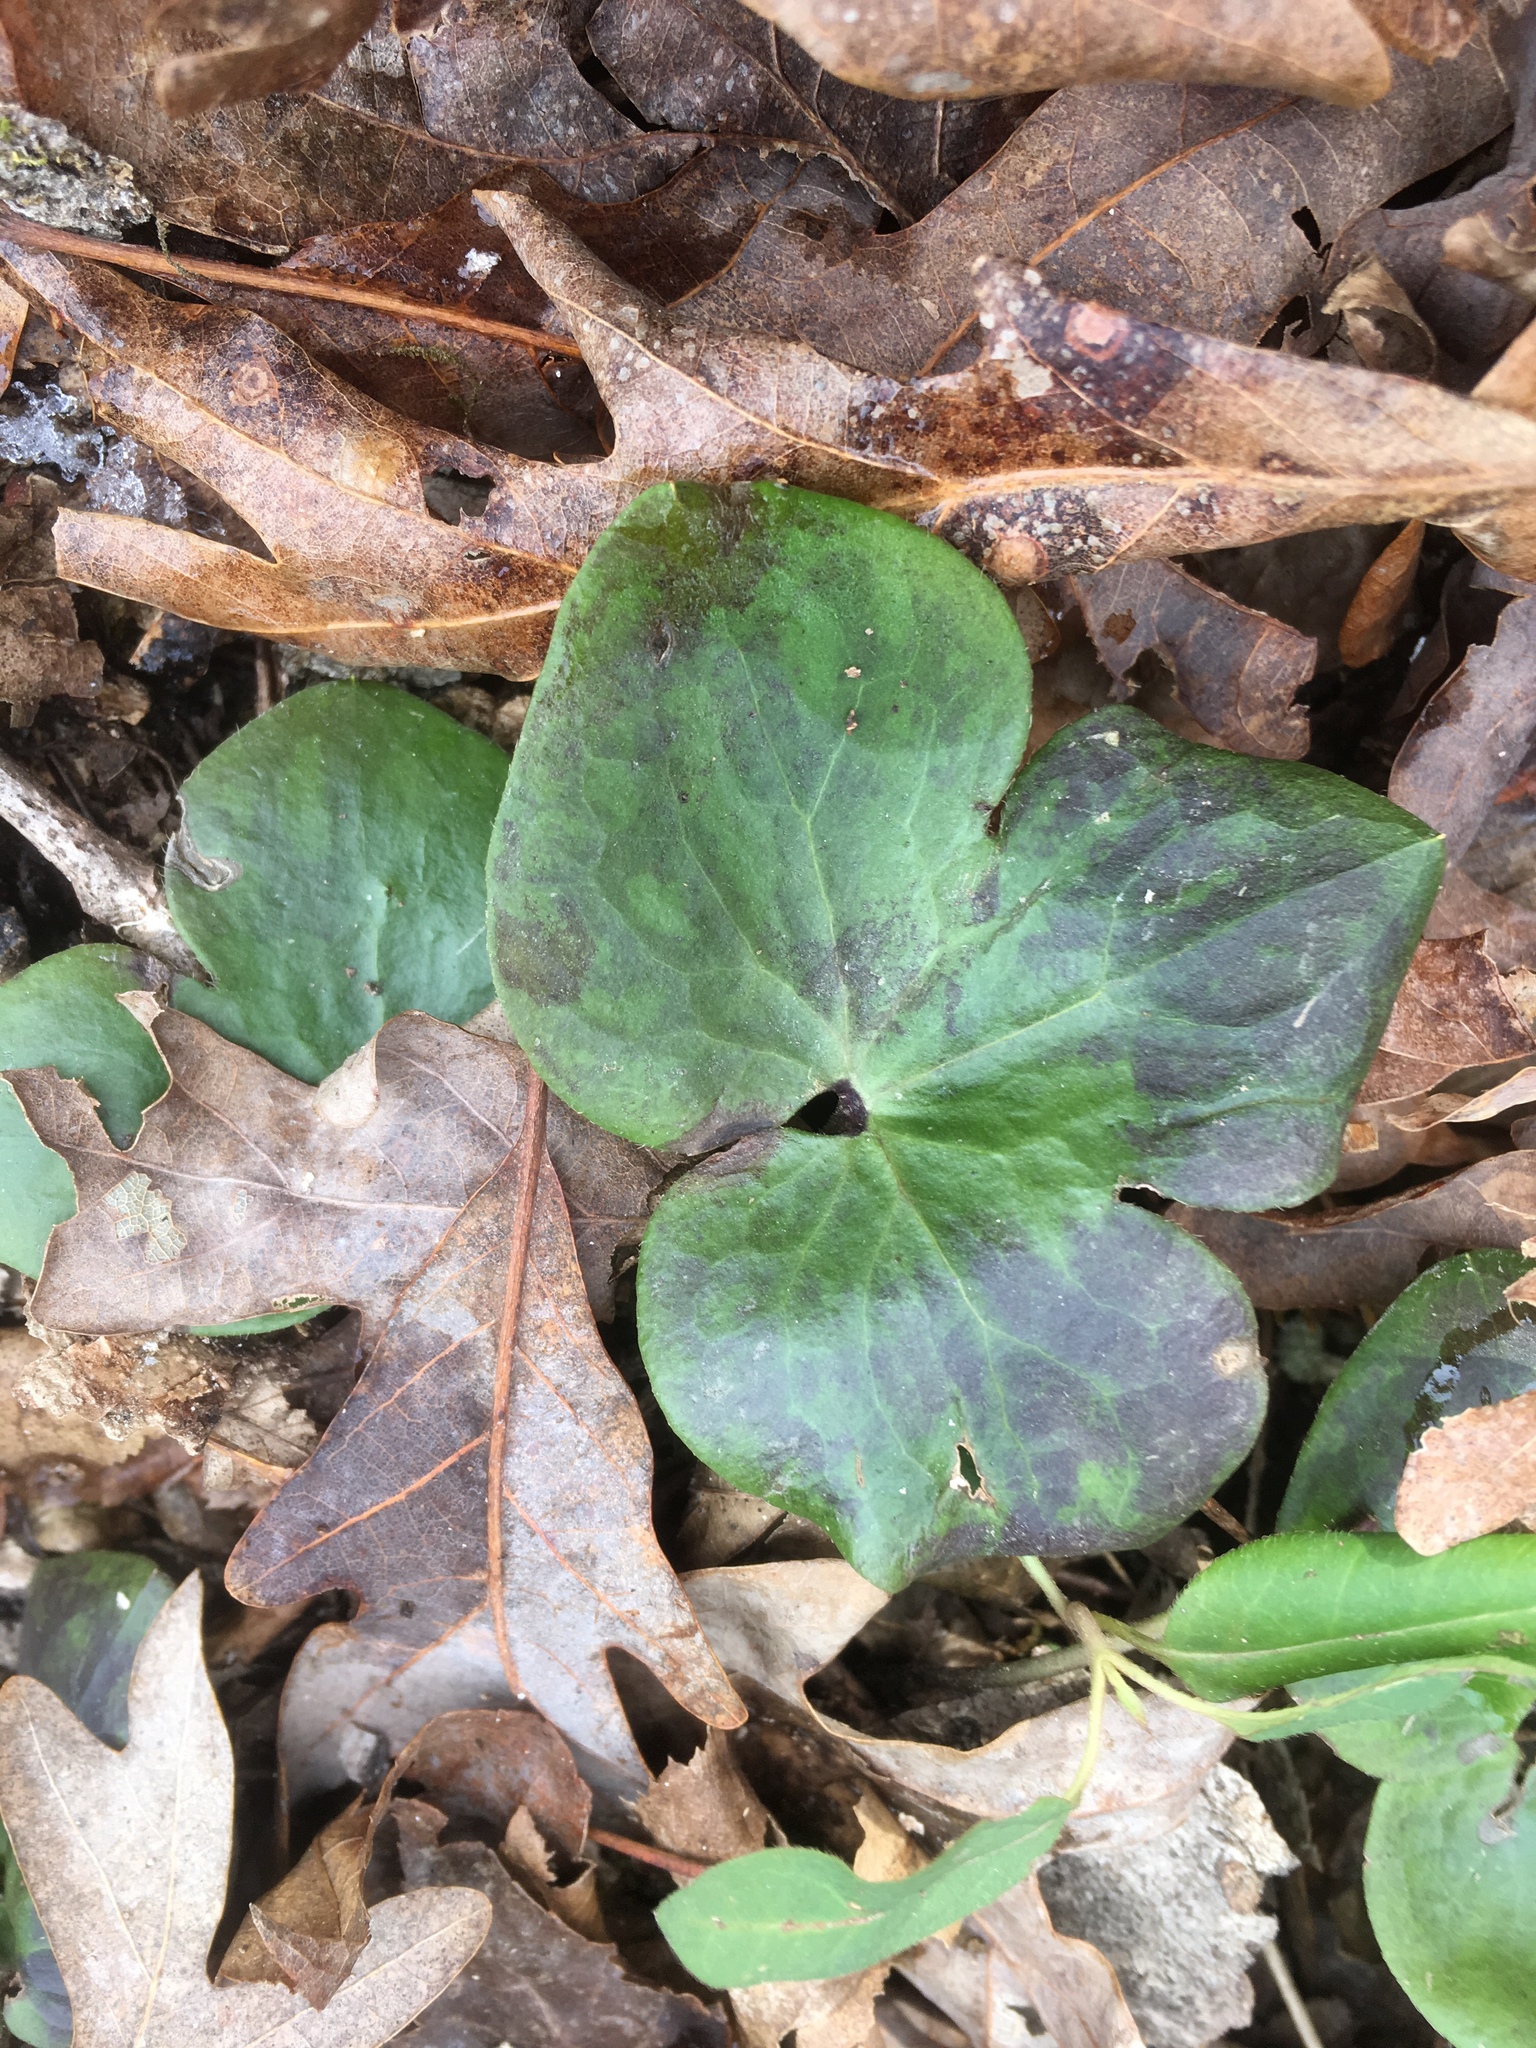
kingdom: Plantae
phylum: Tracheophyta
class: Magnoliopsida
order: Ranunculales
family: Ranunculaceae
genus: Hepatica
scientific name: Hepatica americana
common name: American hepatica
